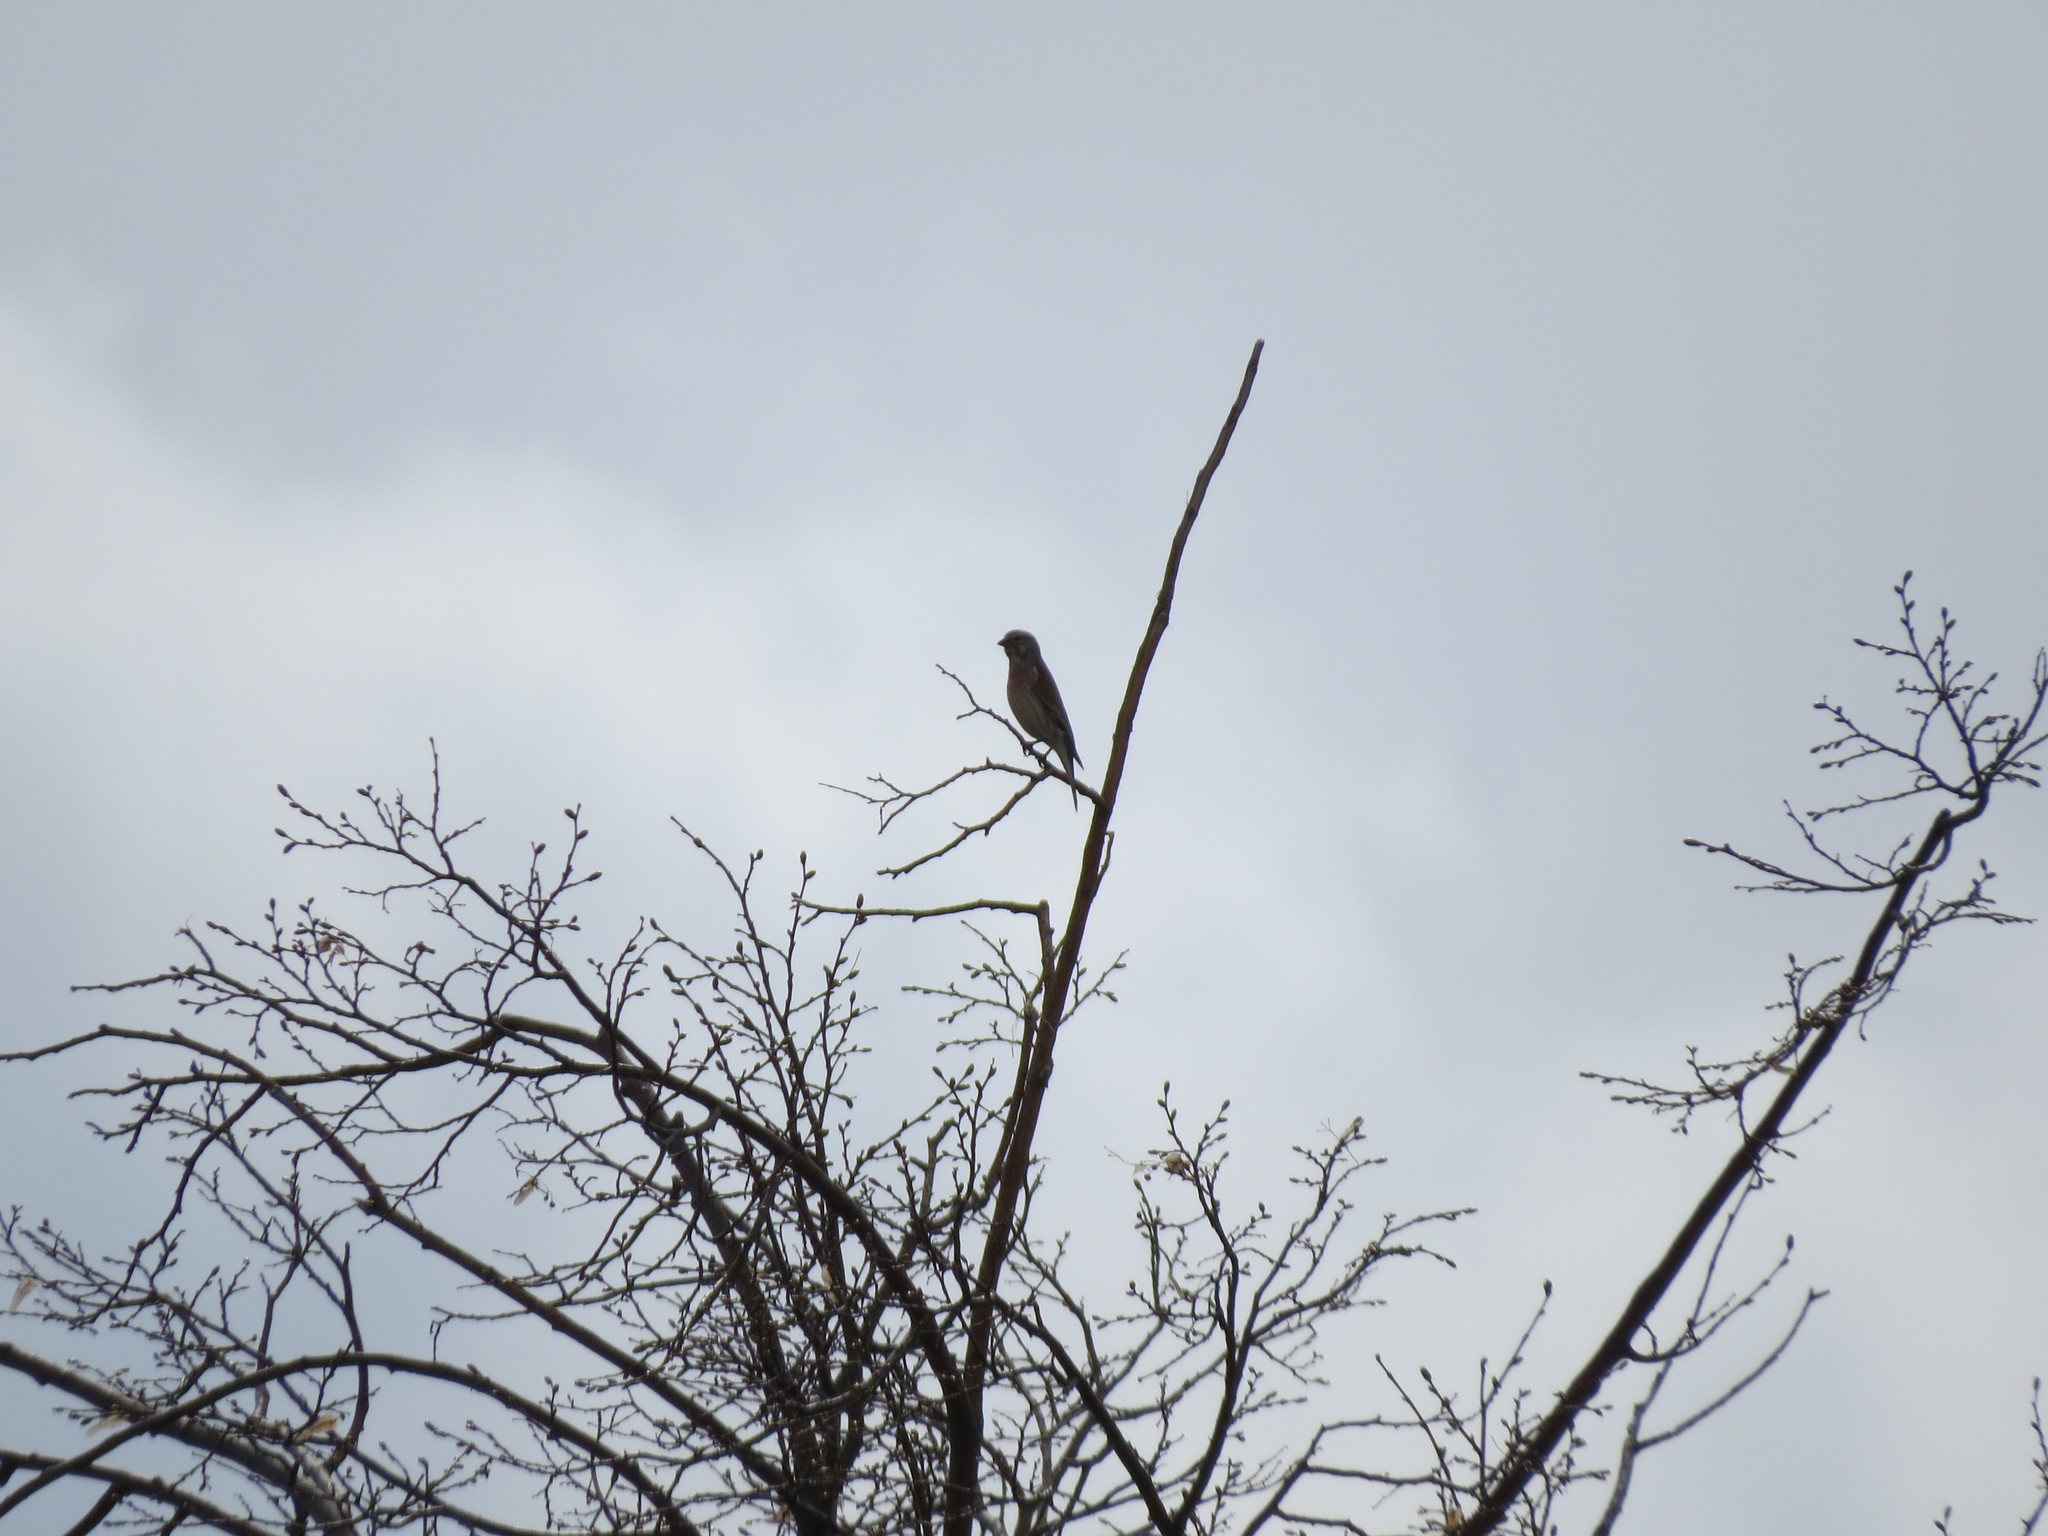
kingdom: Animalia
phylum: Chordata
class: Aves
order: Passeriformes
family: Fringillidae
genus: Linaria
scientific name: Linaria cannabina
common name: Common linnet
